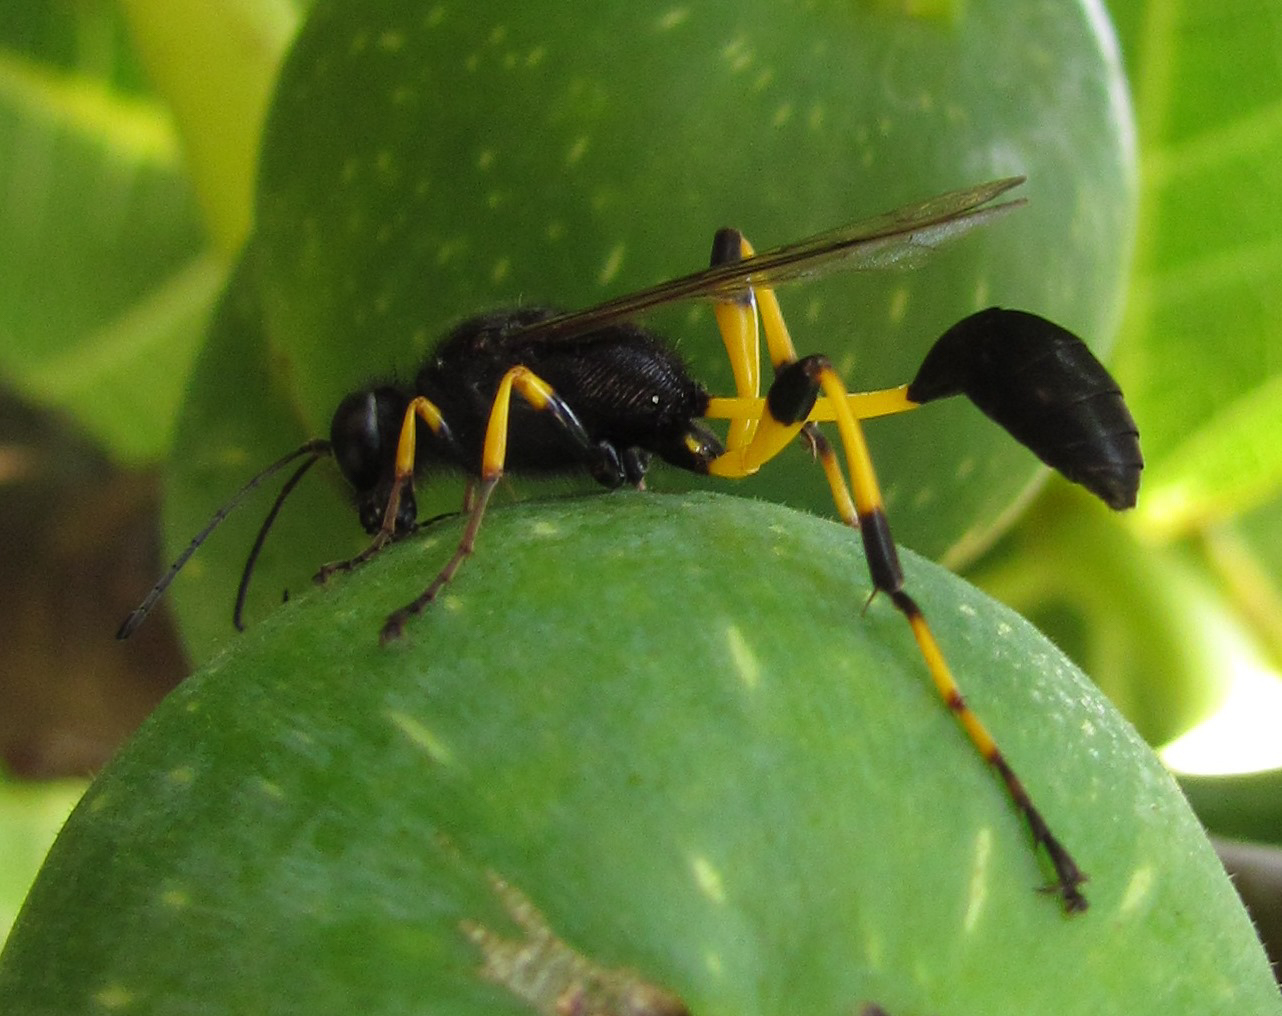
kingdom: Animalia
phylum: Arthropoda
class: Insecta
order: Hymenoptera
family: Sphecidae
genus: Sceliphron
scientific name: Sceliphron spirifex
